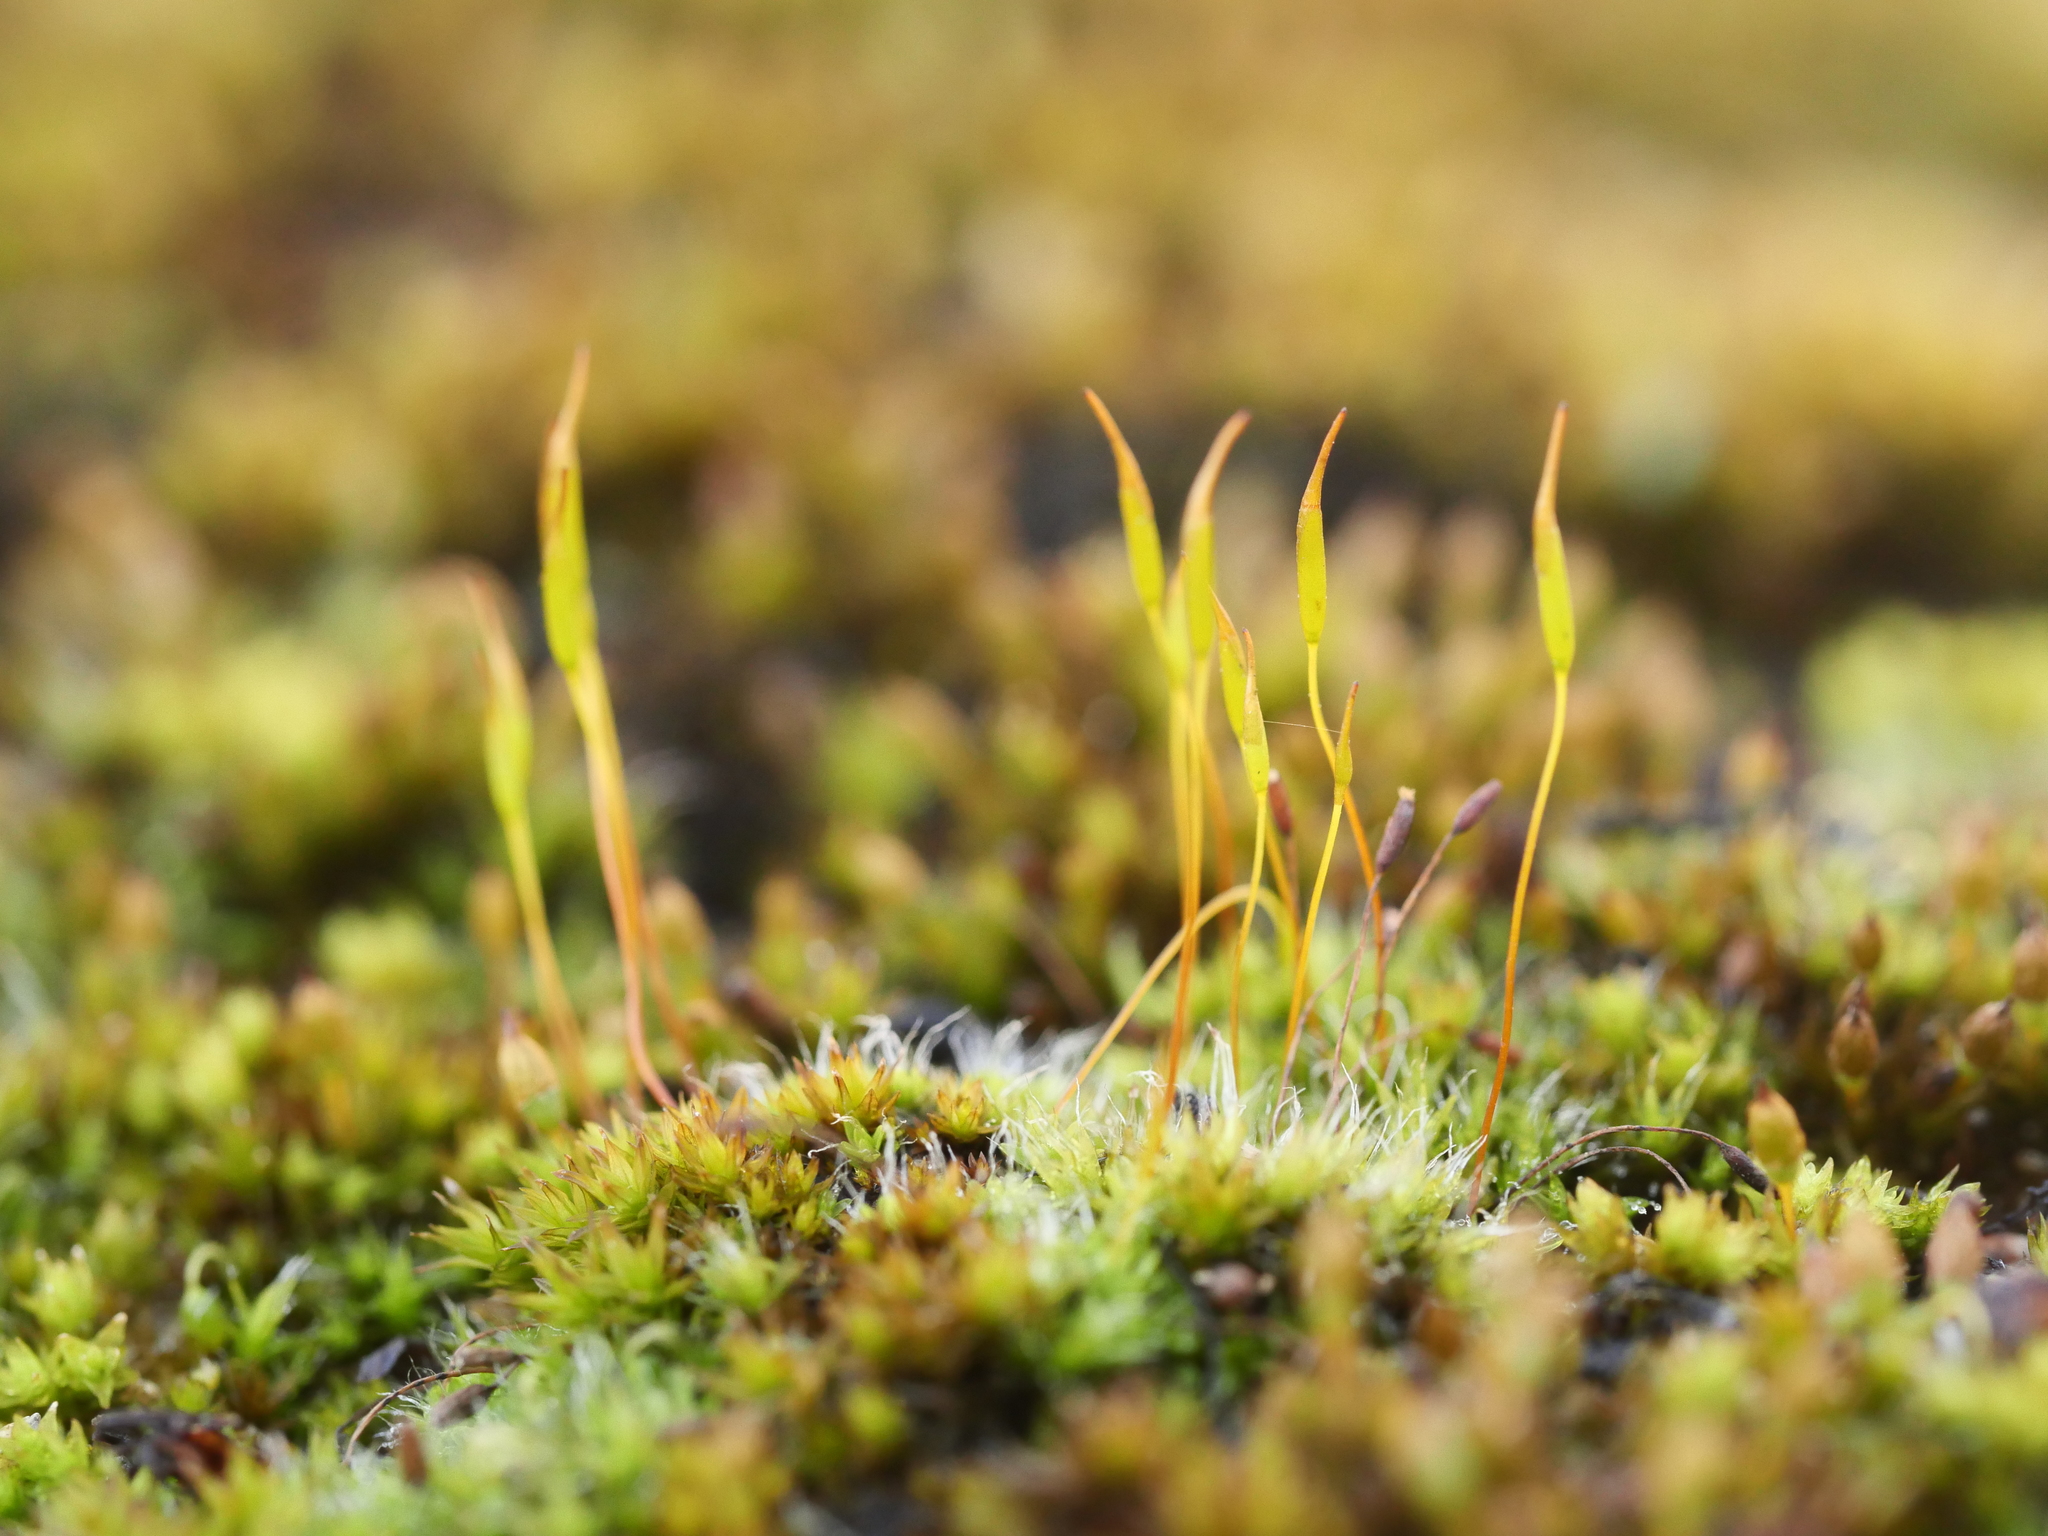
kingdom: Plantae
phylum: Bryophyta
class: Bryopsida
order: Pottiales
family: Pottiaceae
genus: Tortula
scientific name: Tortula muralis
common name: Wall screw-moss
